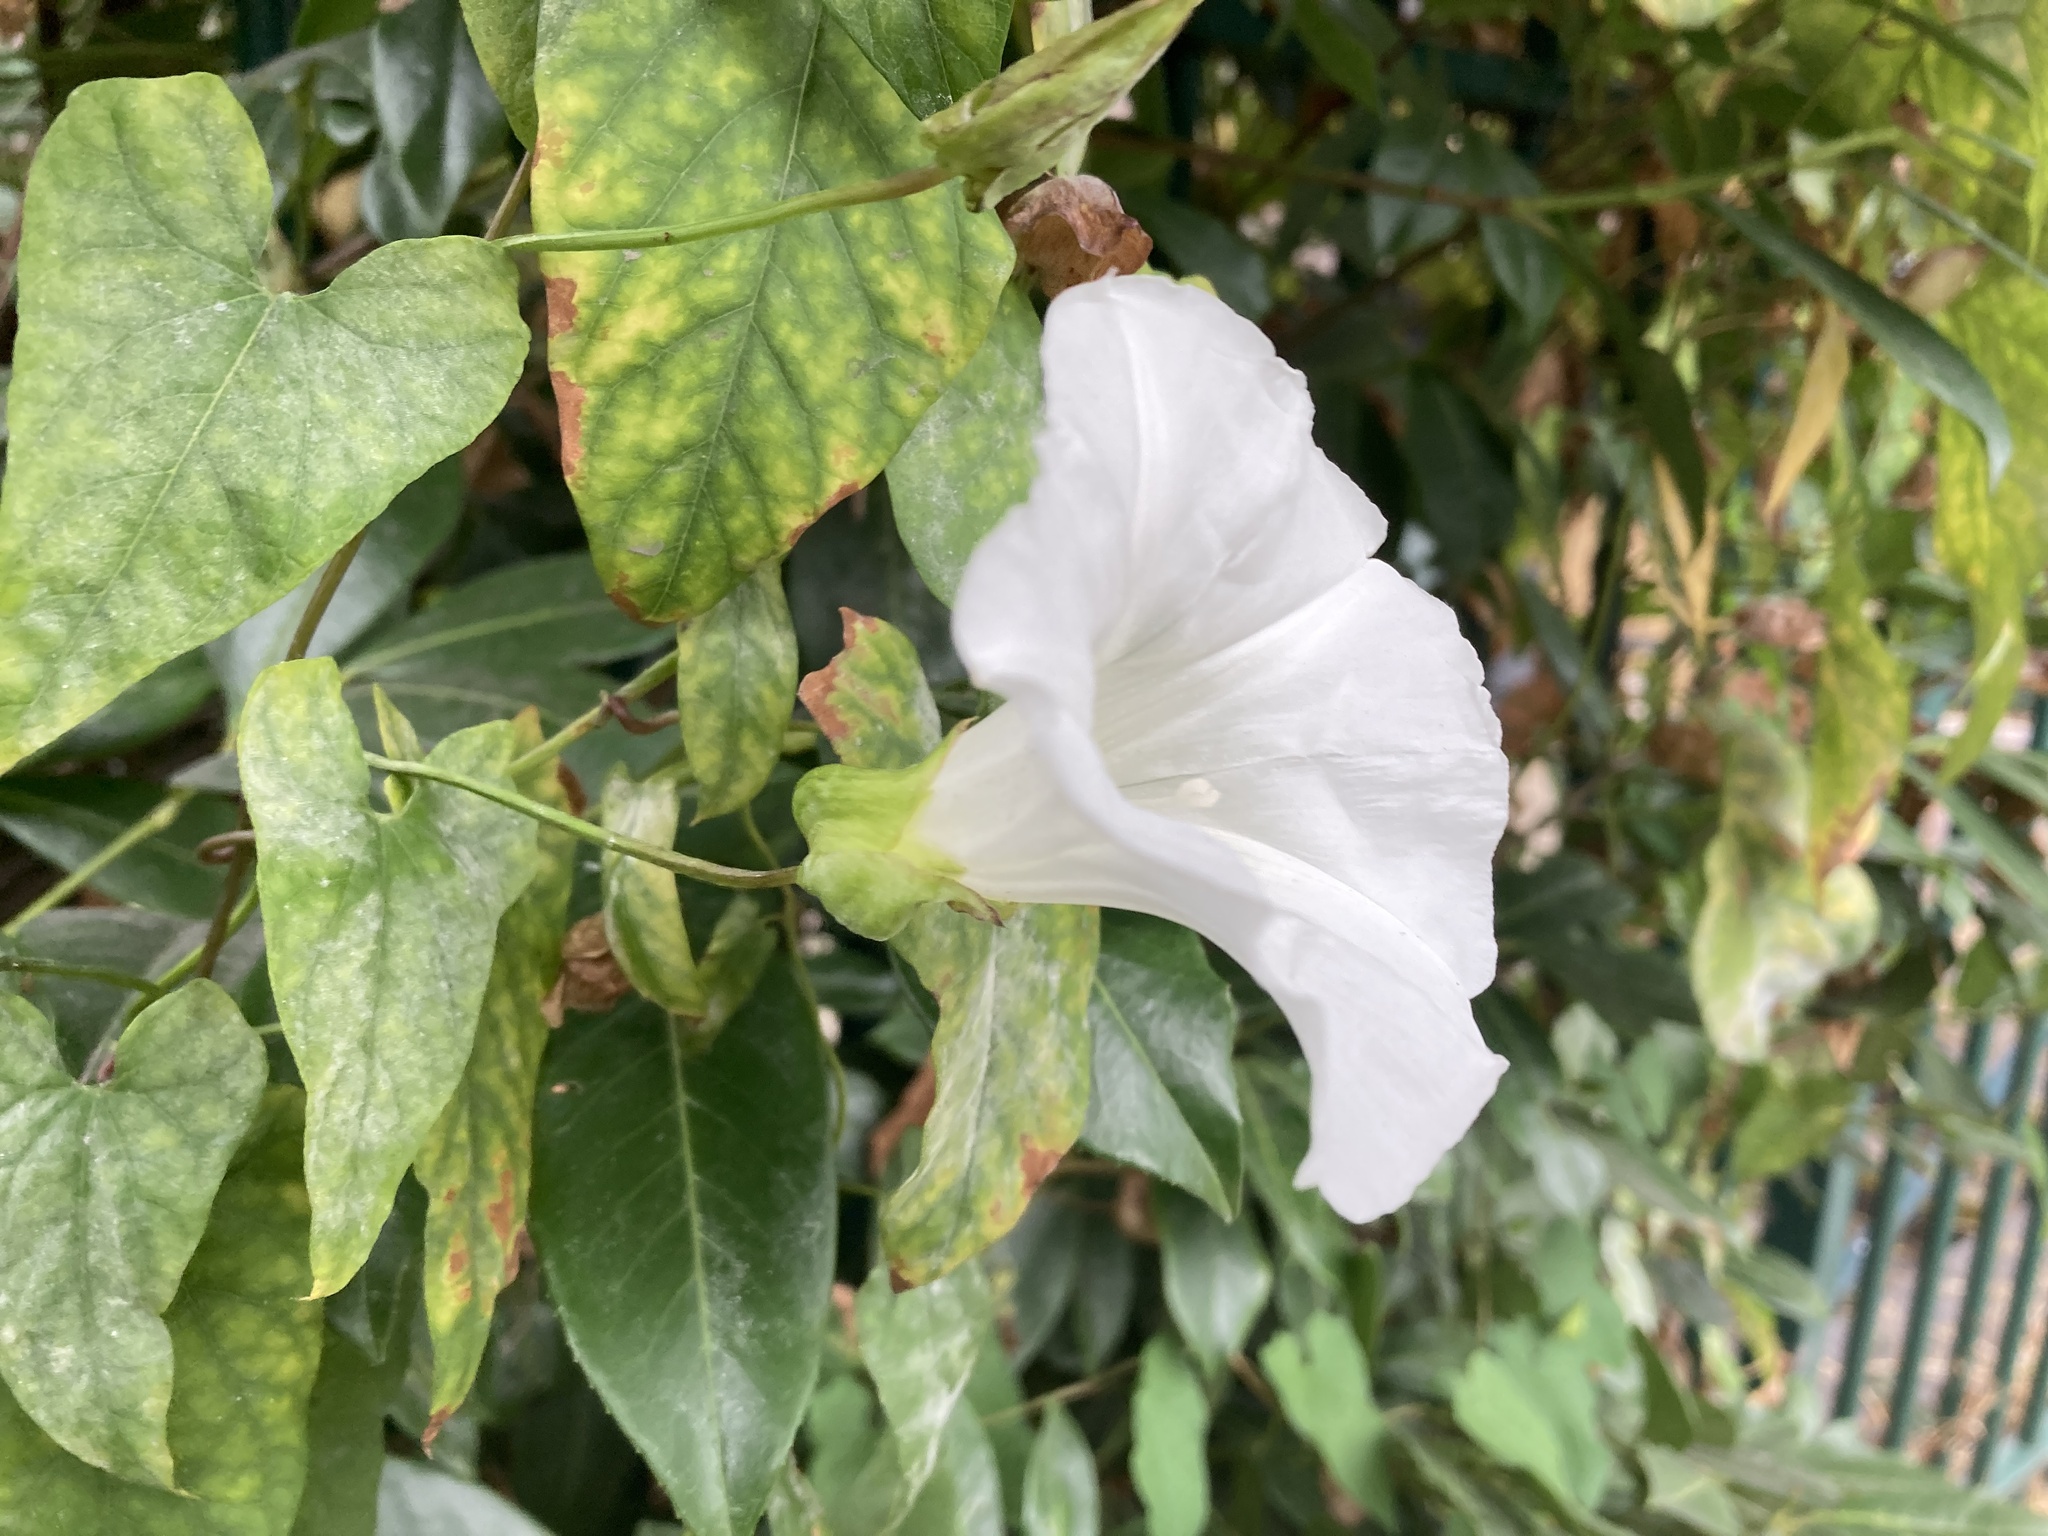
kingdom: Fungi
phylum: Ascomycota
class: Leotiomycetes
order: Helotiales
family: Erysiphaceae
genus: Erysiphe
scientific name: Erysiphe convolvuli
